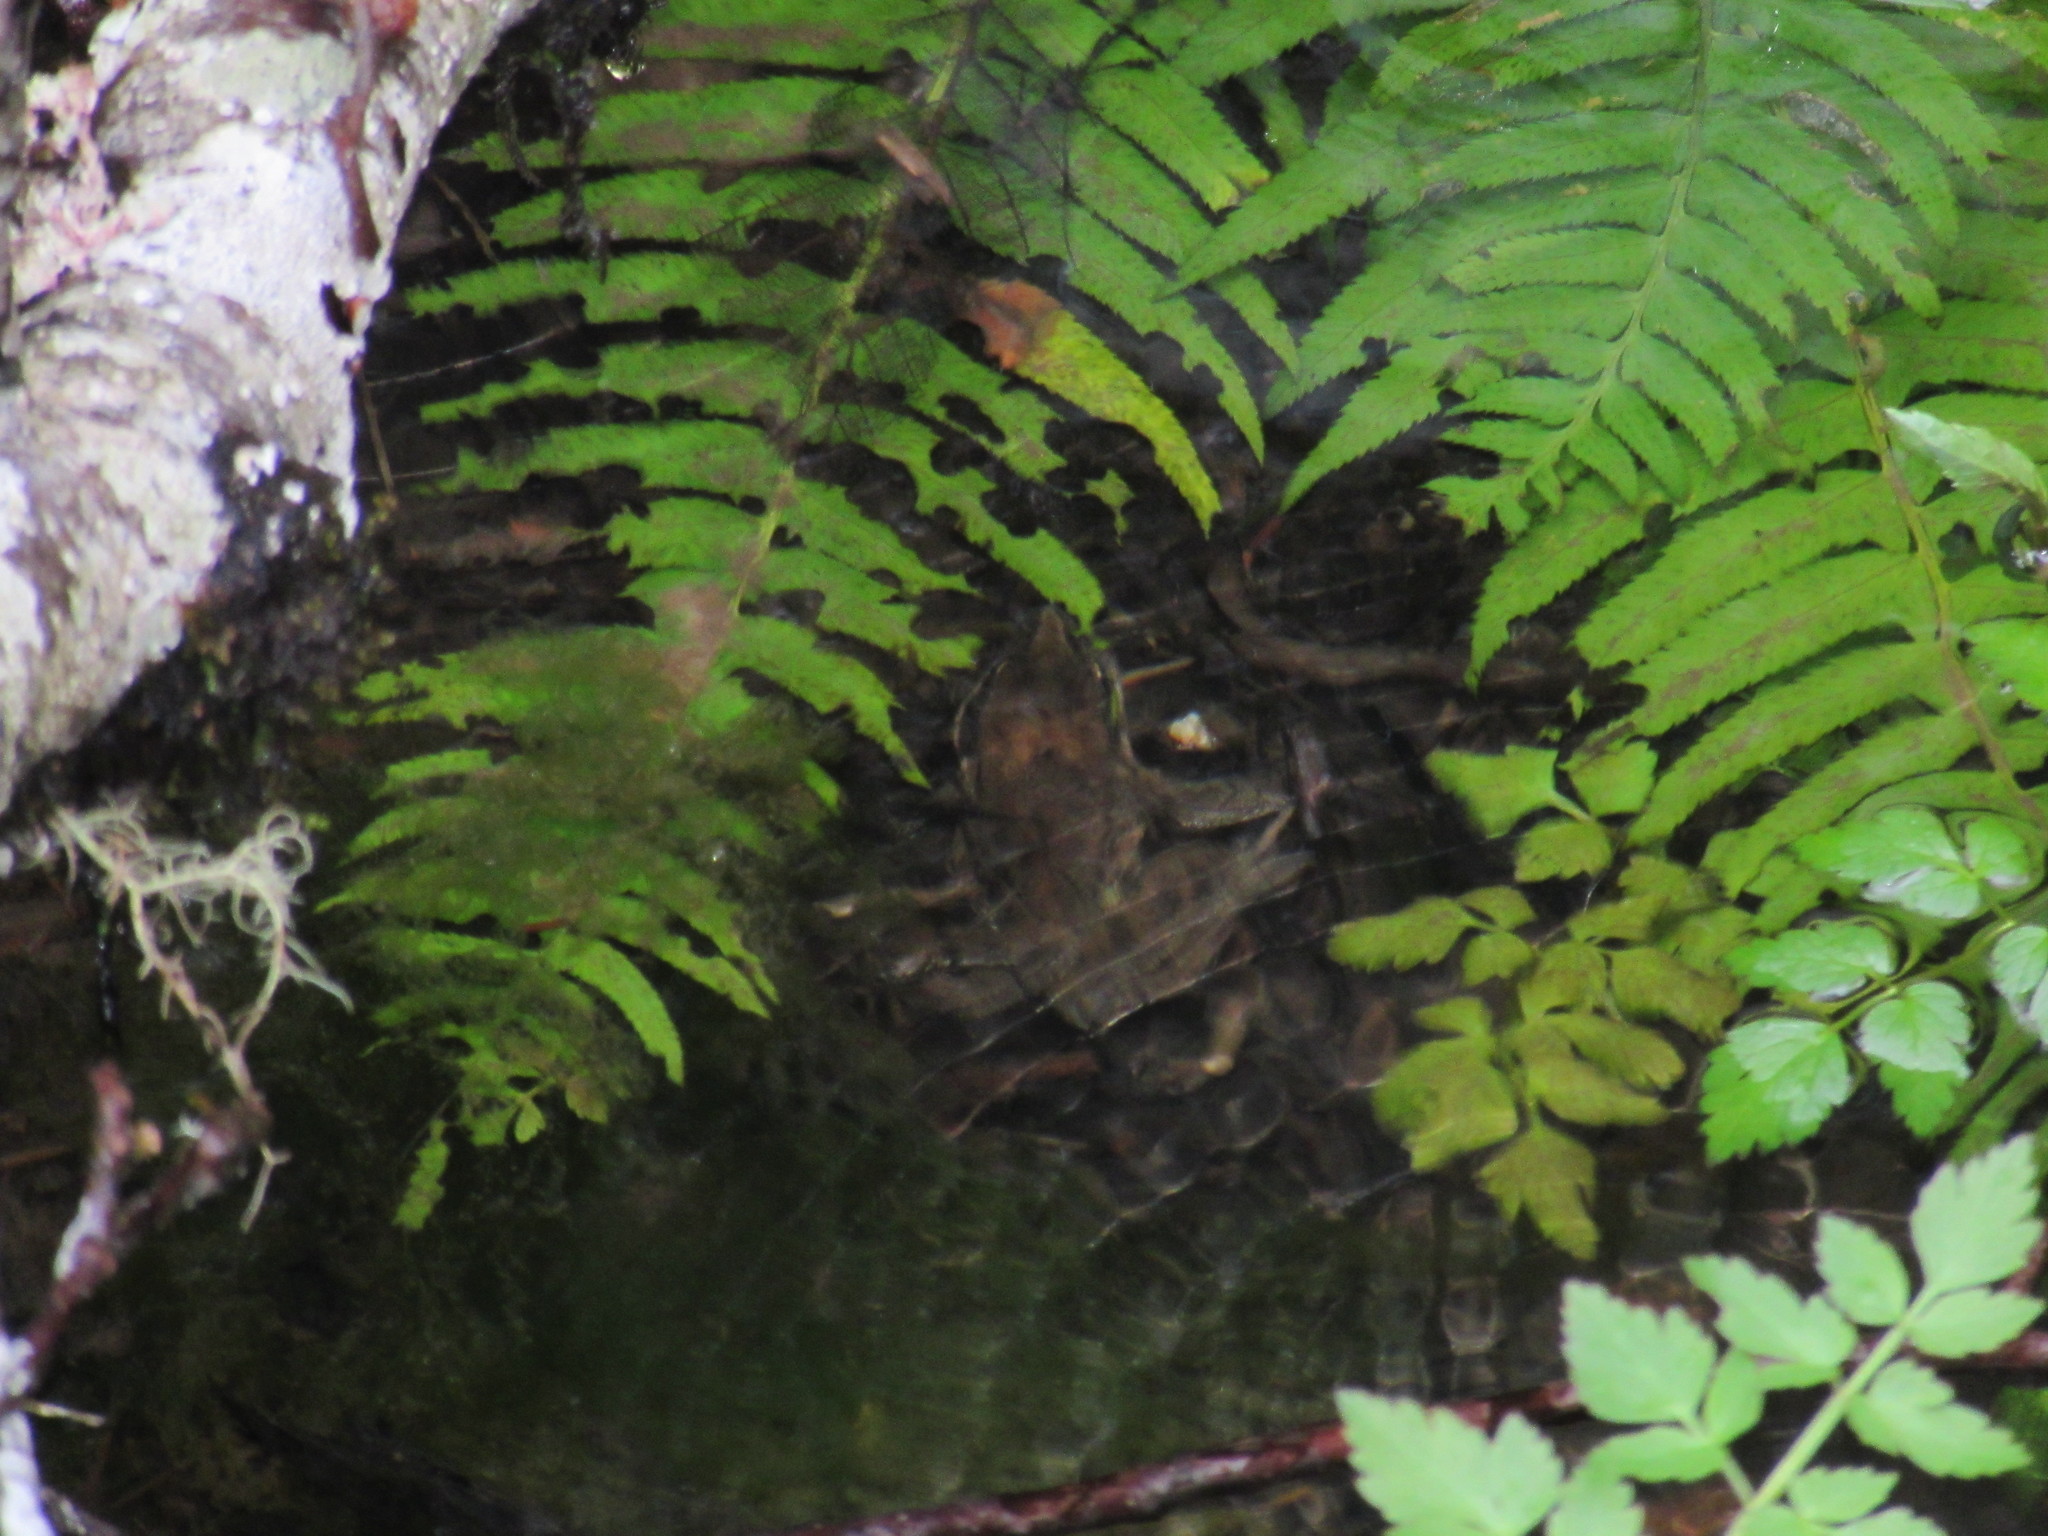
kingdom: Animalia
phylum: Chordata
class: Amphibia
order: Anura
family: Ranidae
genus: Rana
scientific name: Rana aurora
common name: Red-legged frog
